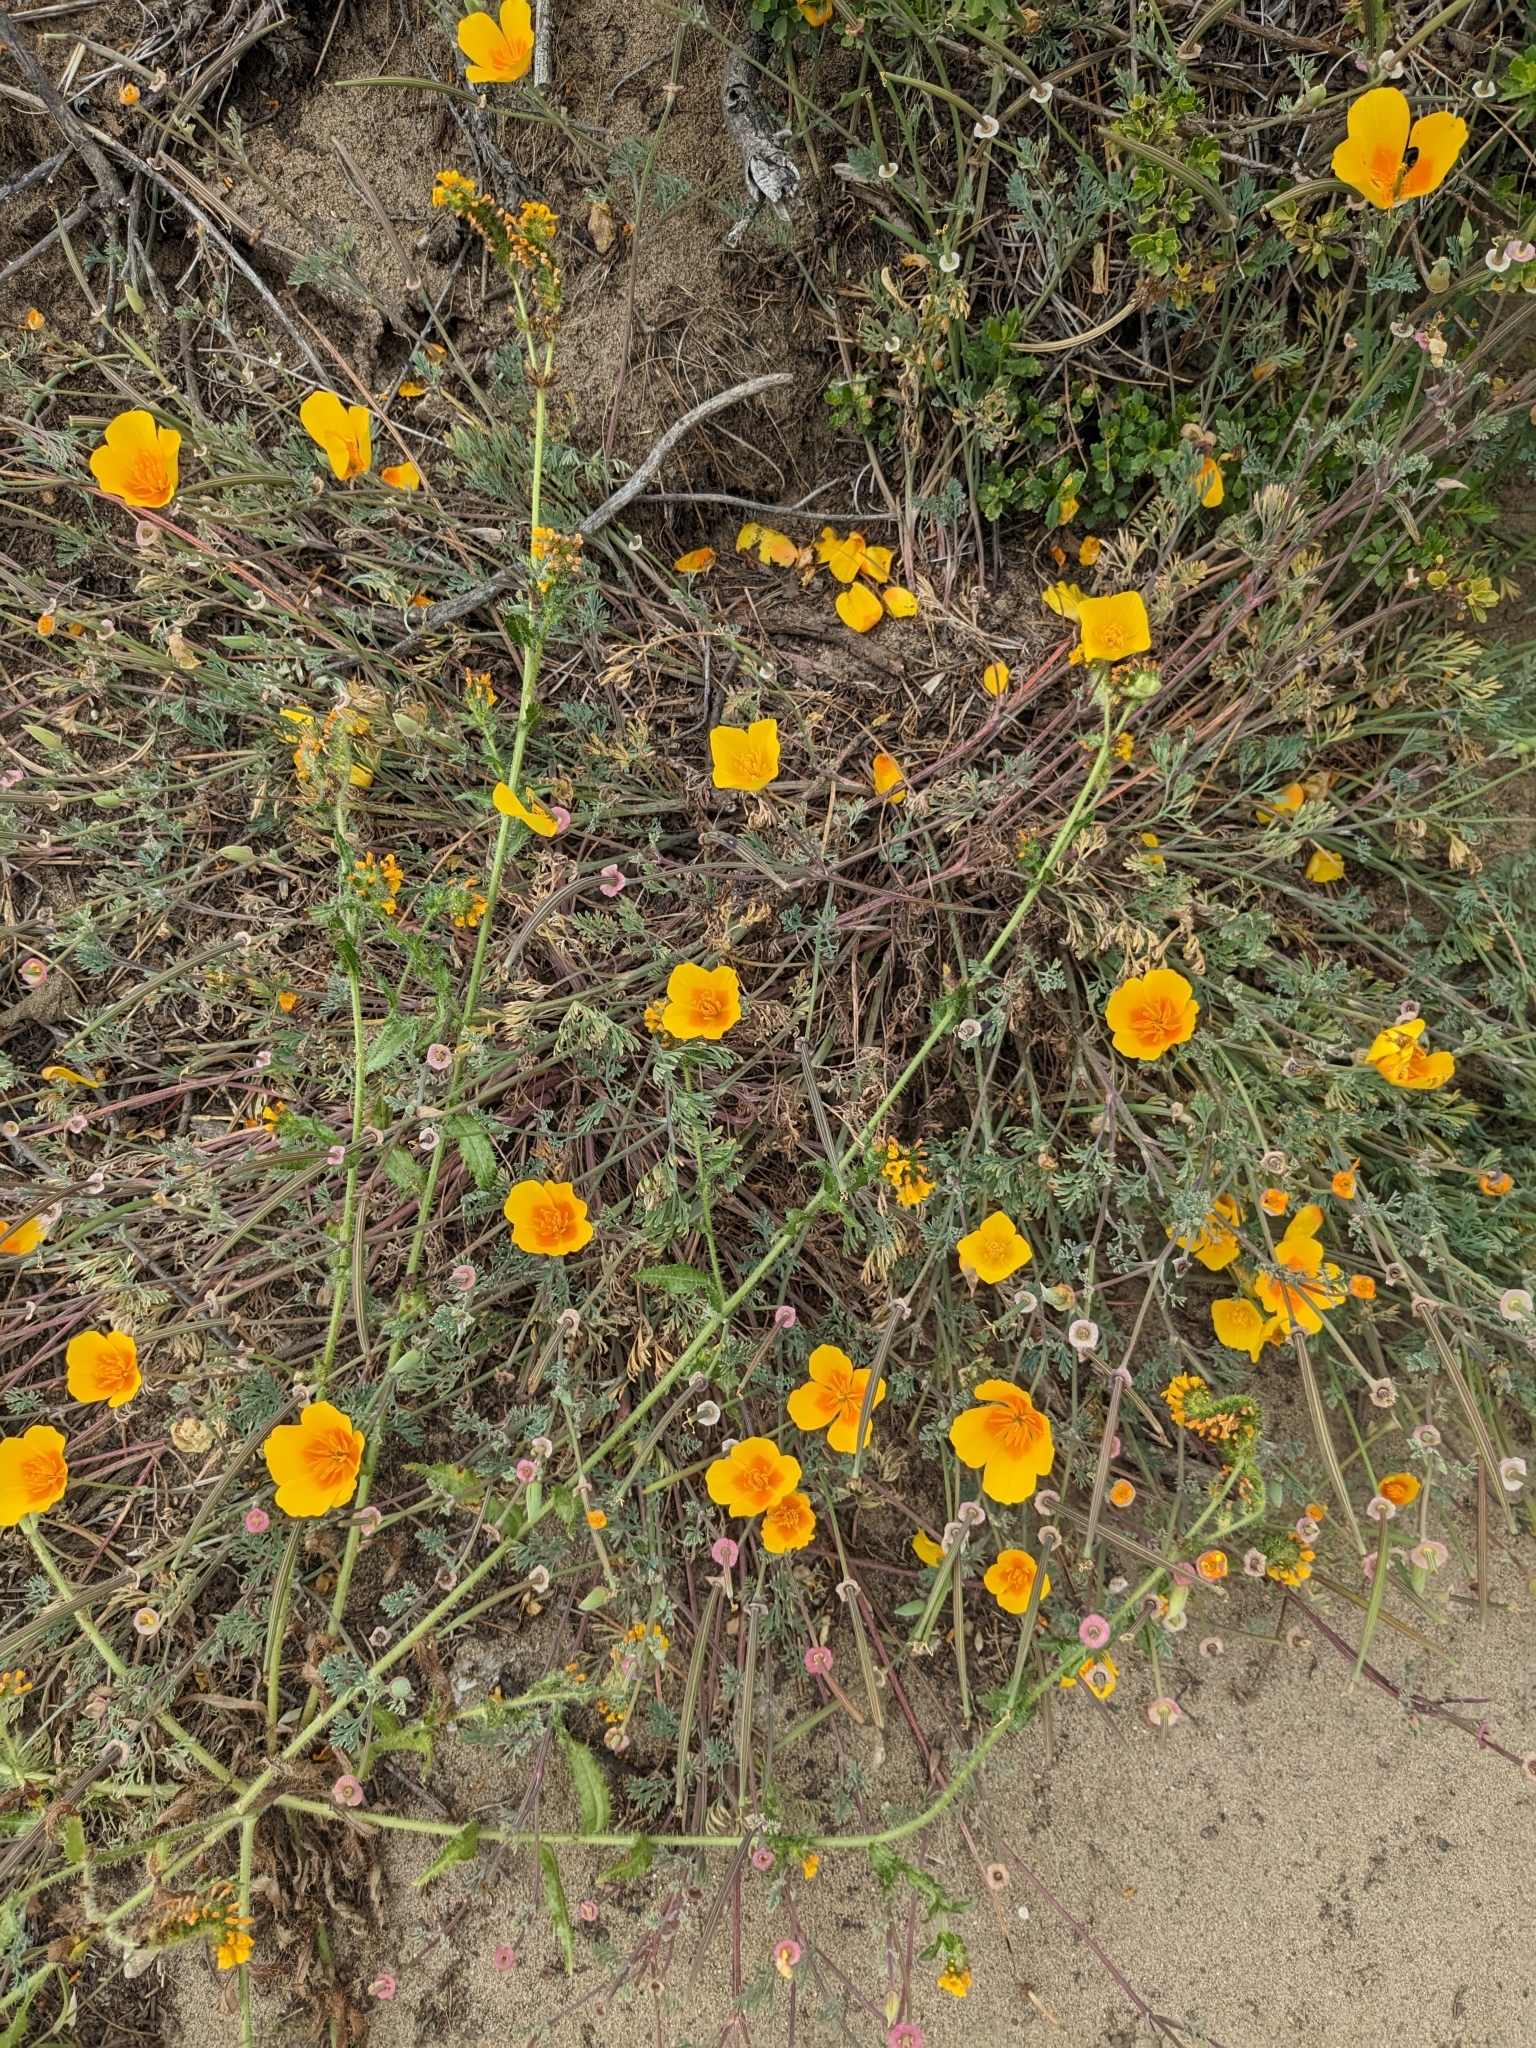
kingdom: Plantae
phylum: Tracheophyta
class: Magnoliopsida
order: Ranunculales
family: Papaveraceae
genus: Eschscholzia
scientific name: Eschscholzia californica
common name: California poppy
